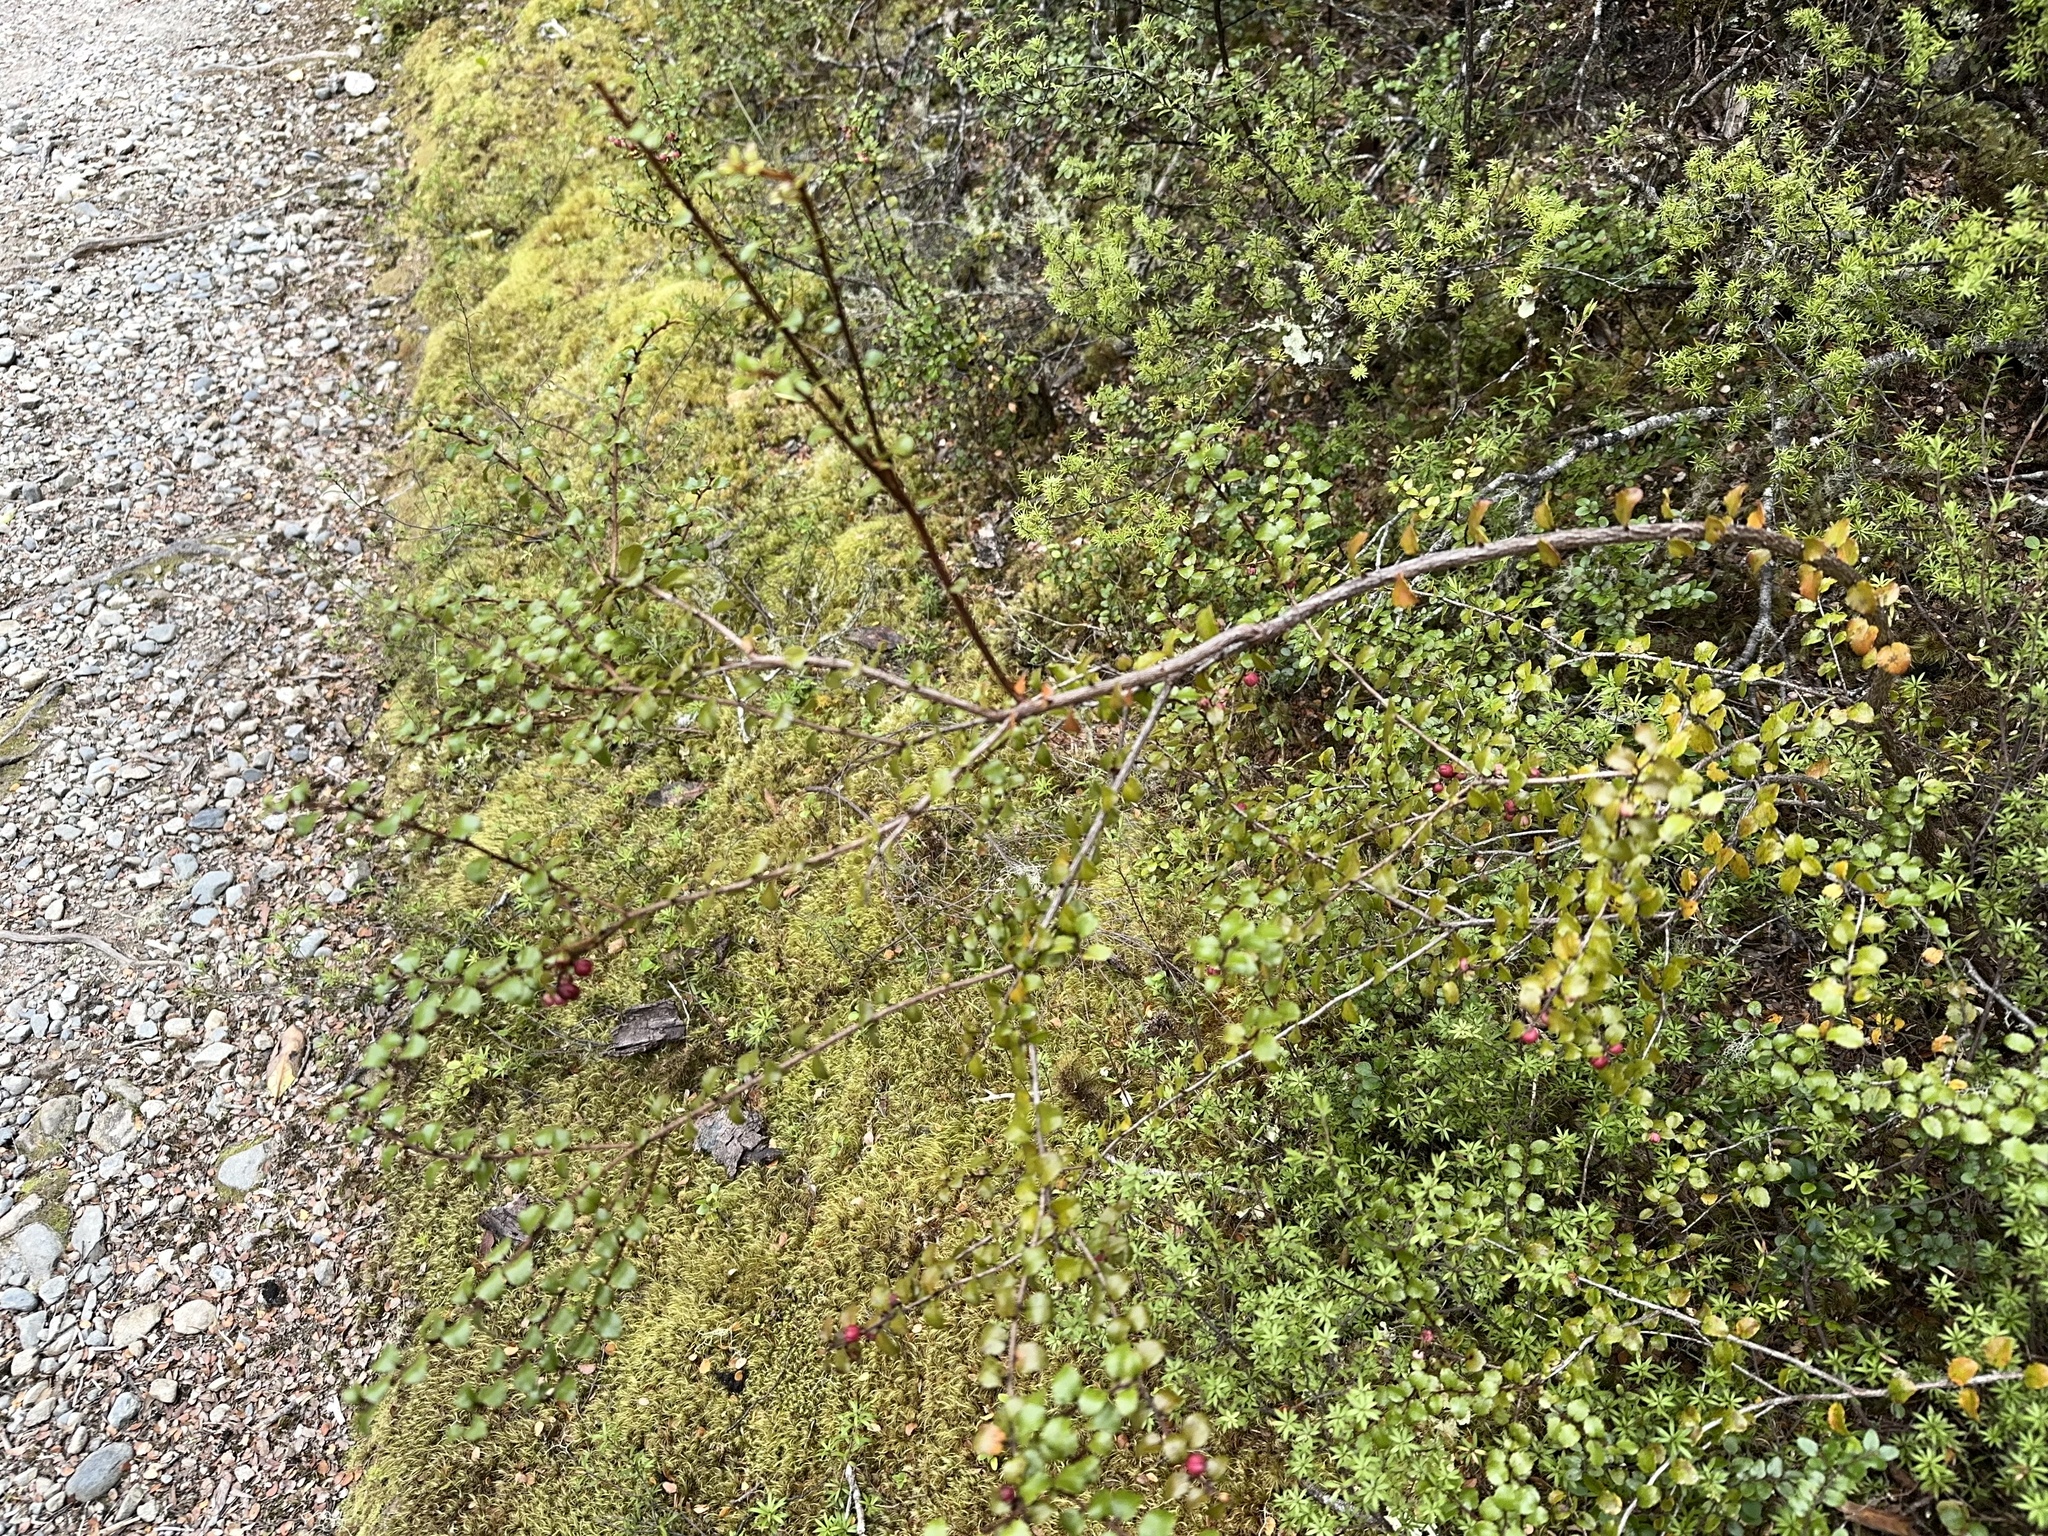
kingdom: Plantae
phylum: Tracheophyta
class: Magnoliopsida
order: Ericales
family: Ericaceae
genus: Gaultheria
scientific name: Gaultheria antipoda
